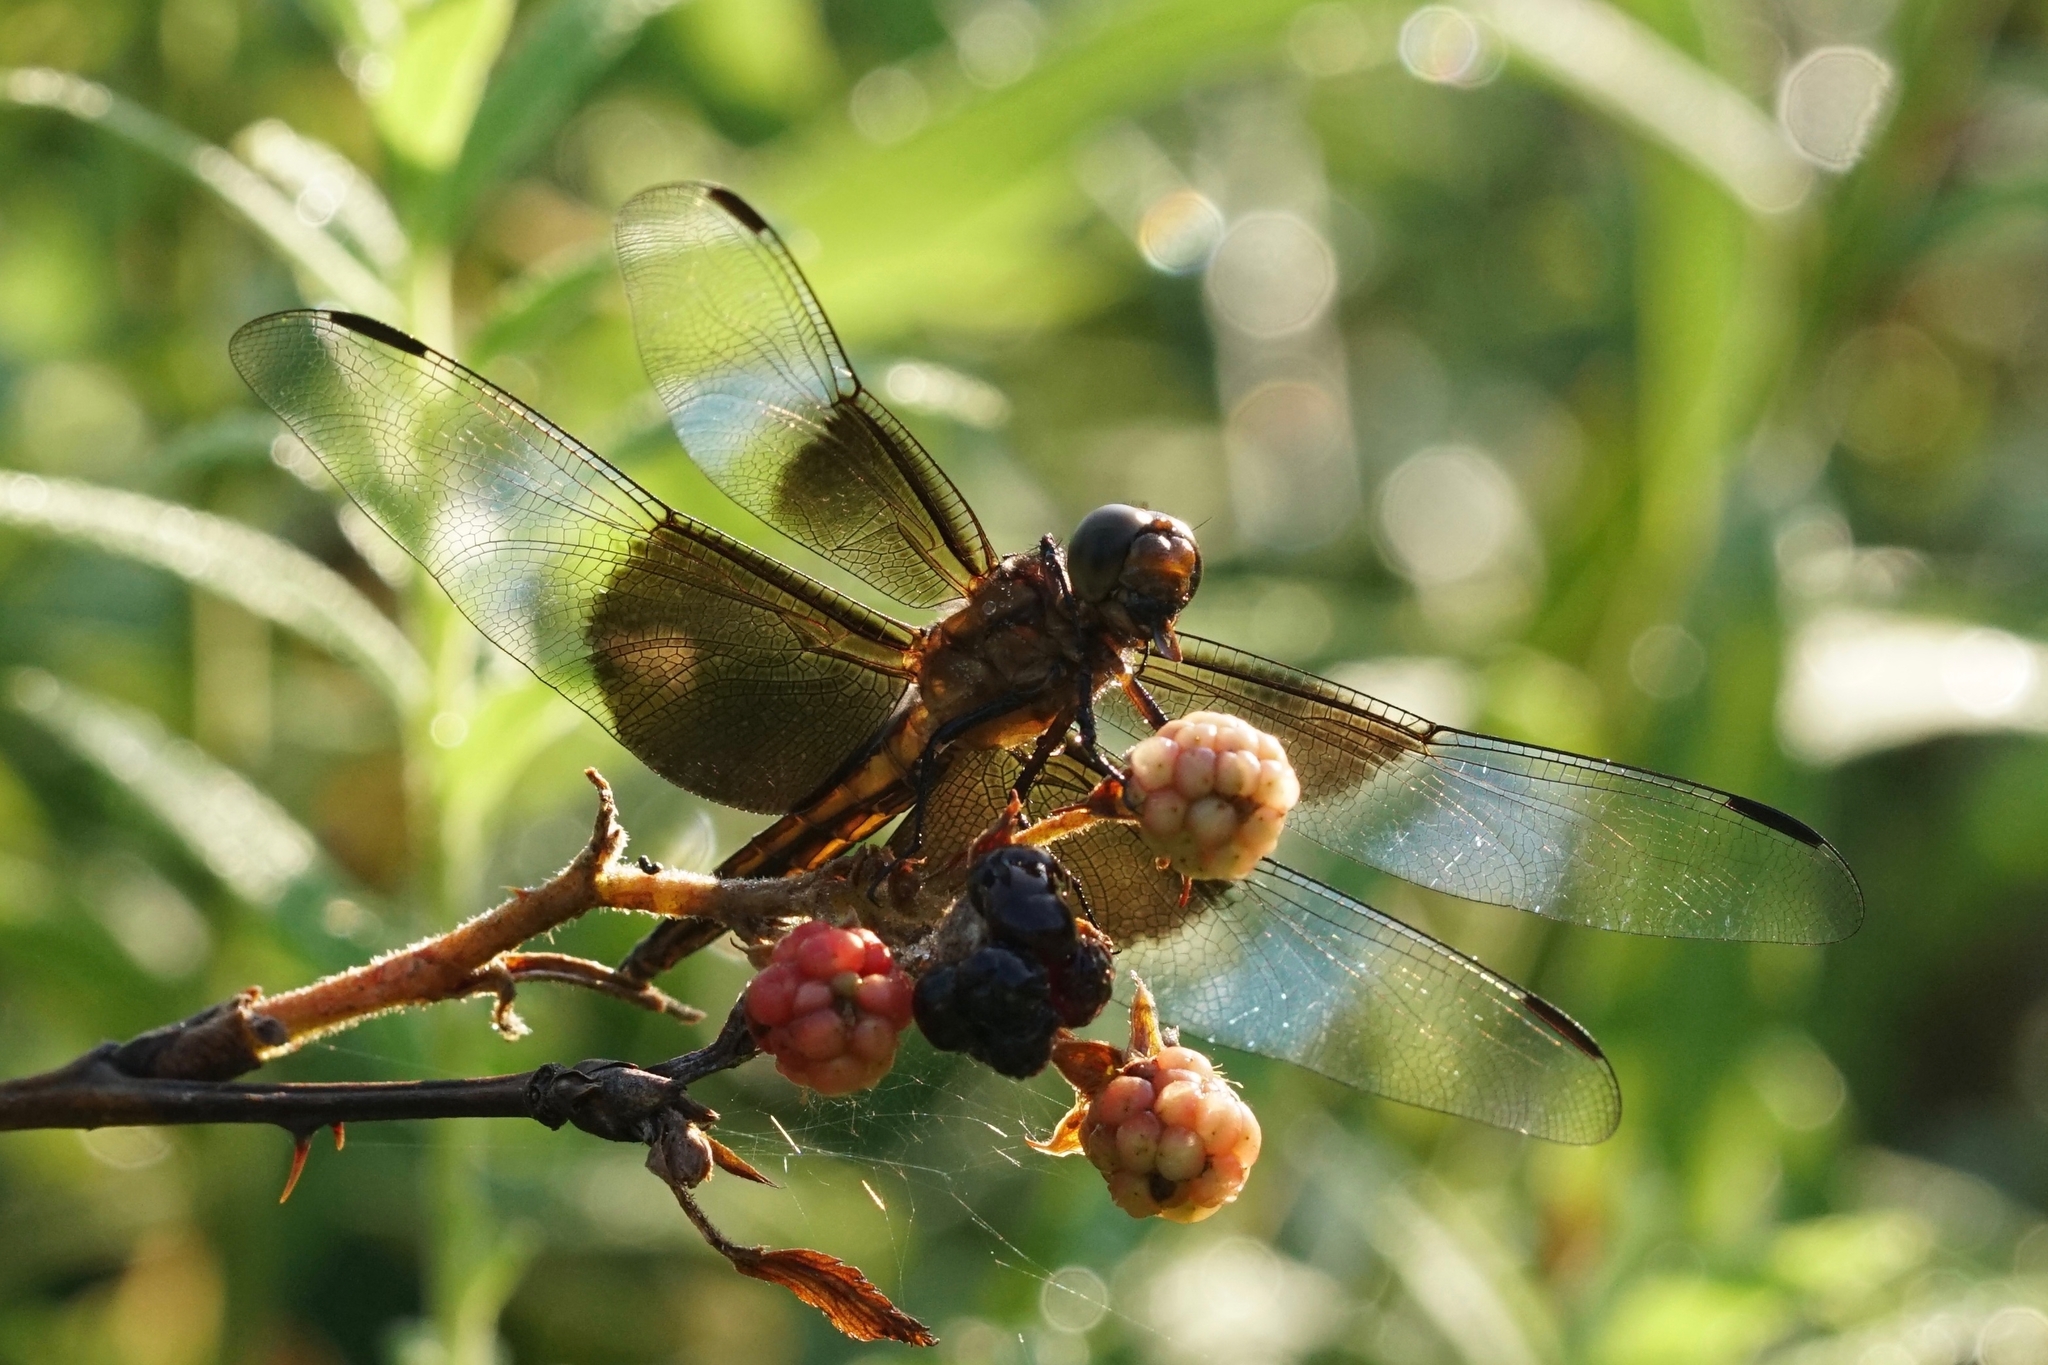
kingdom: Animalia
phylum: Arthropoda
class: Insecta
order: Odonata
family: Libellulidae
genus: Libellula
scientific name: Libellula luctuosa
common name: Widow skimmer
